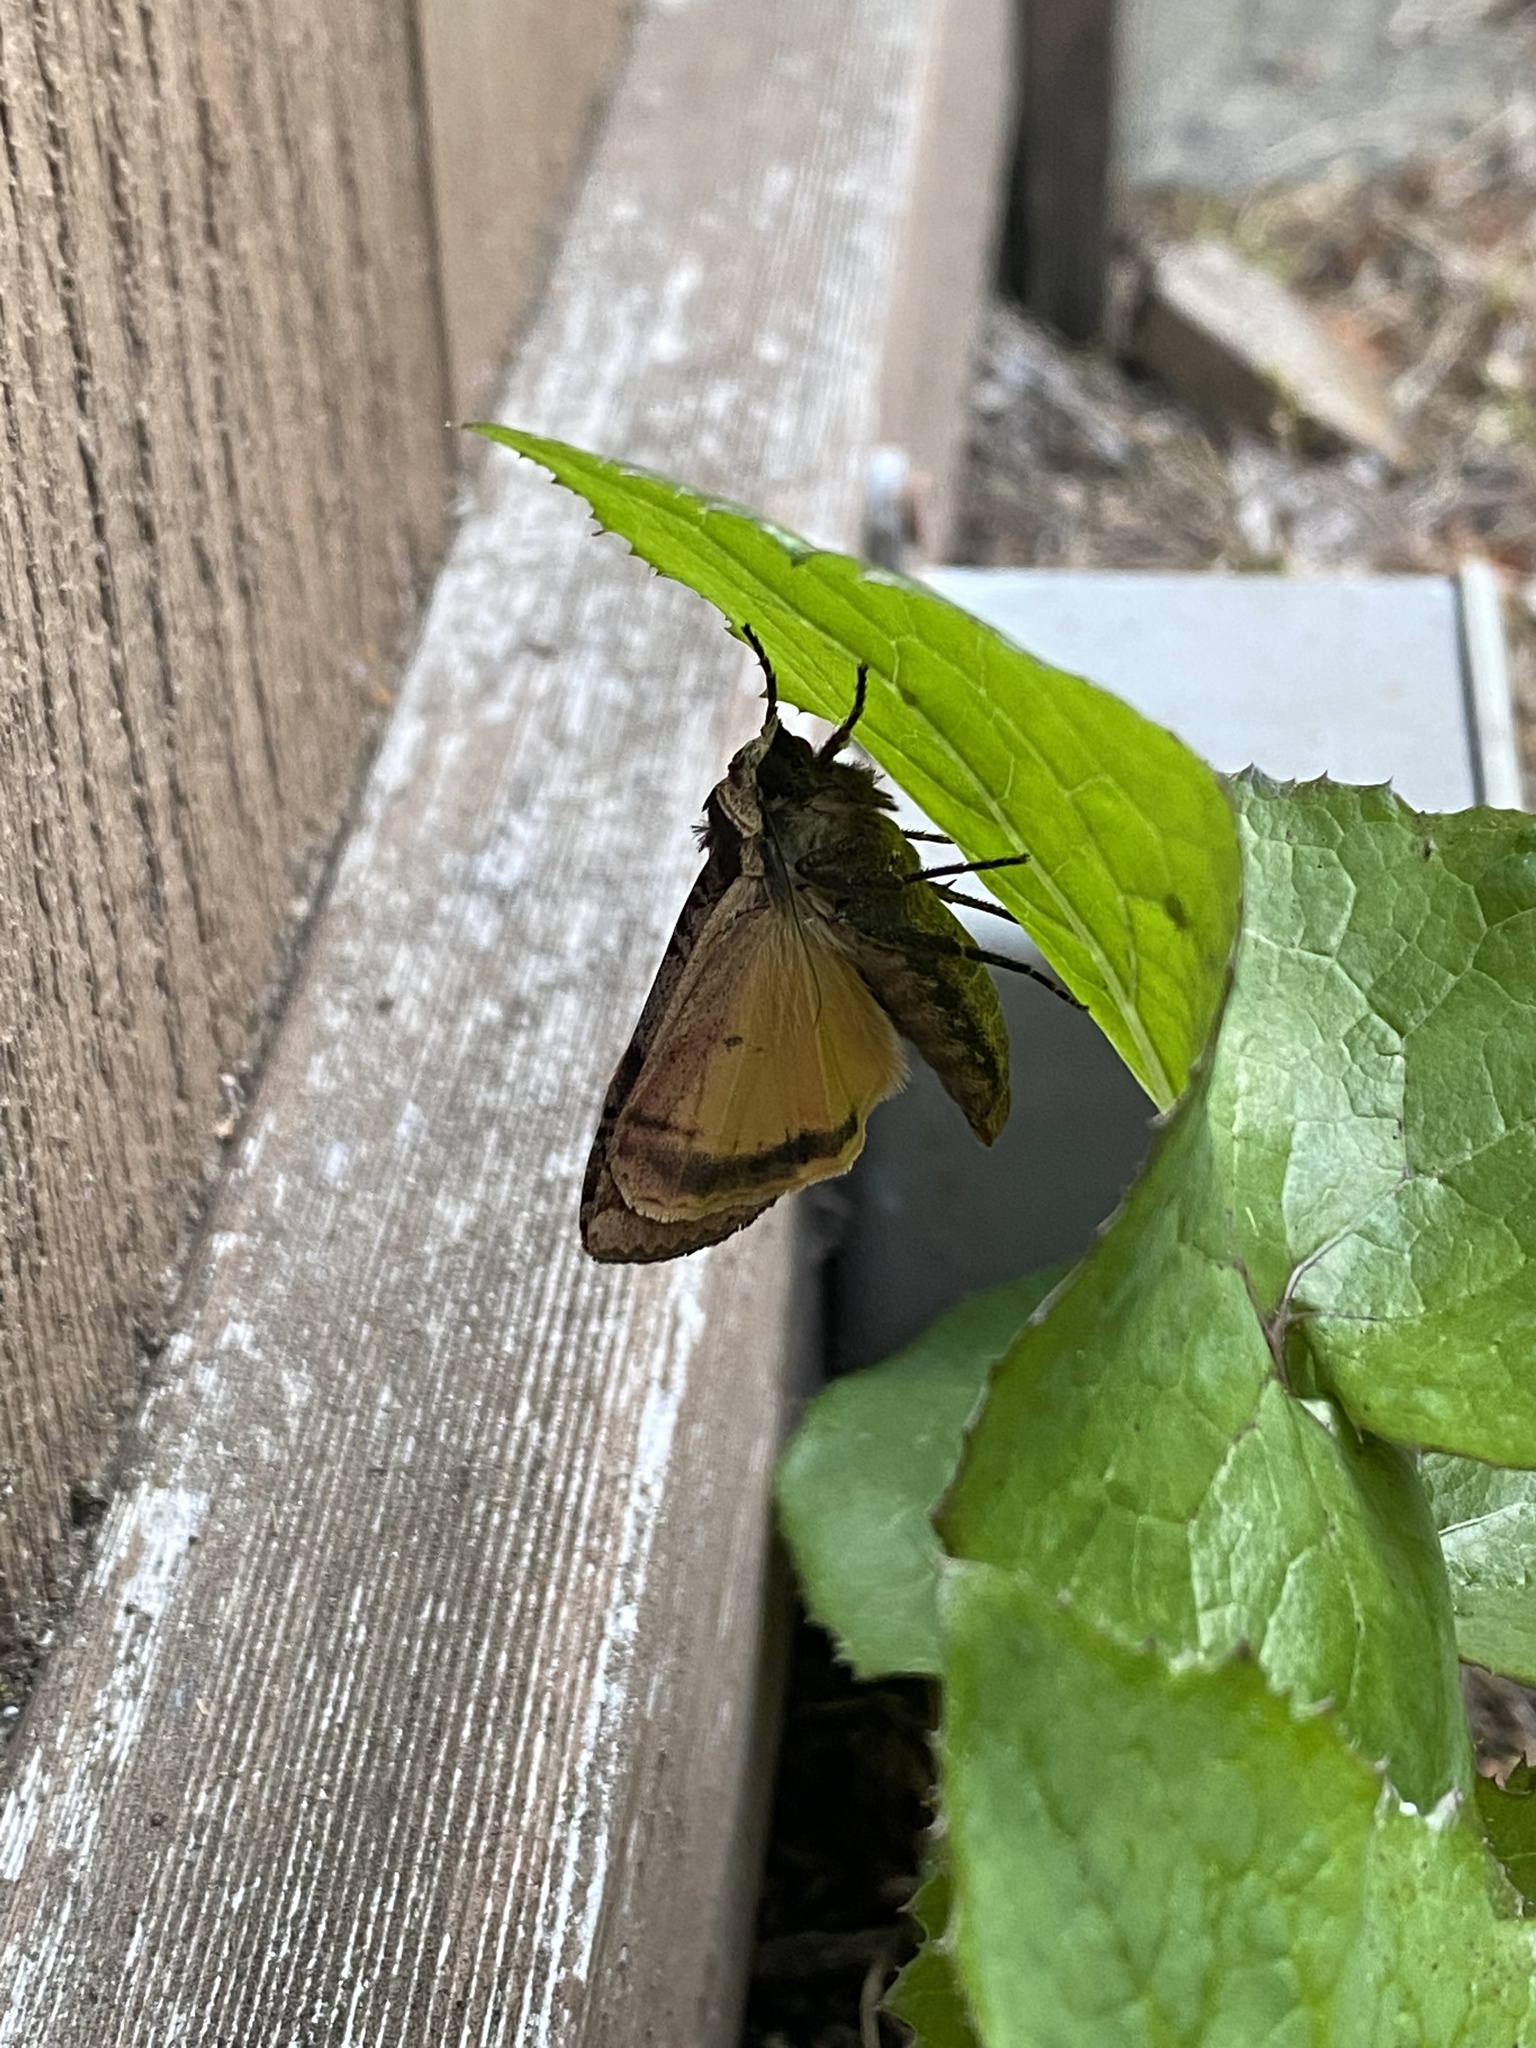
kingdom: Animalia
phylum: Arthropoda
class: Insecta
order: Lepidoptera
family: Noctuidae
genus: Noctua
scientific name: Noctua pronuba
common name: Large yellow underwing
